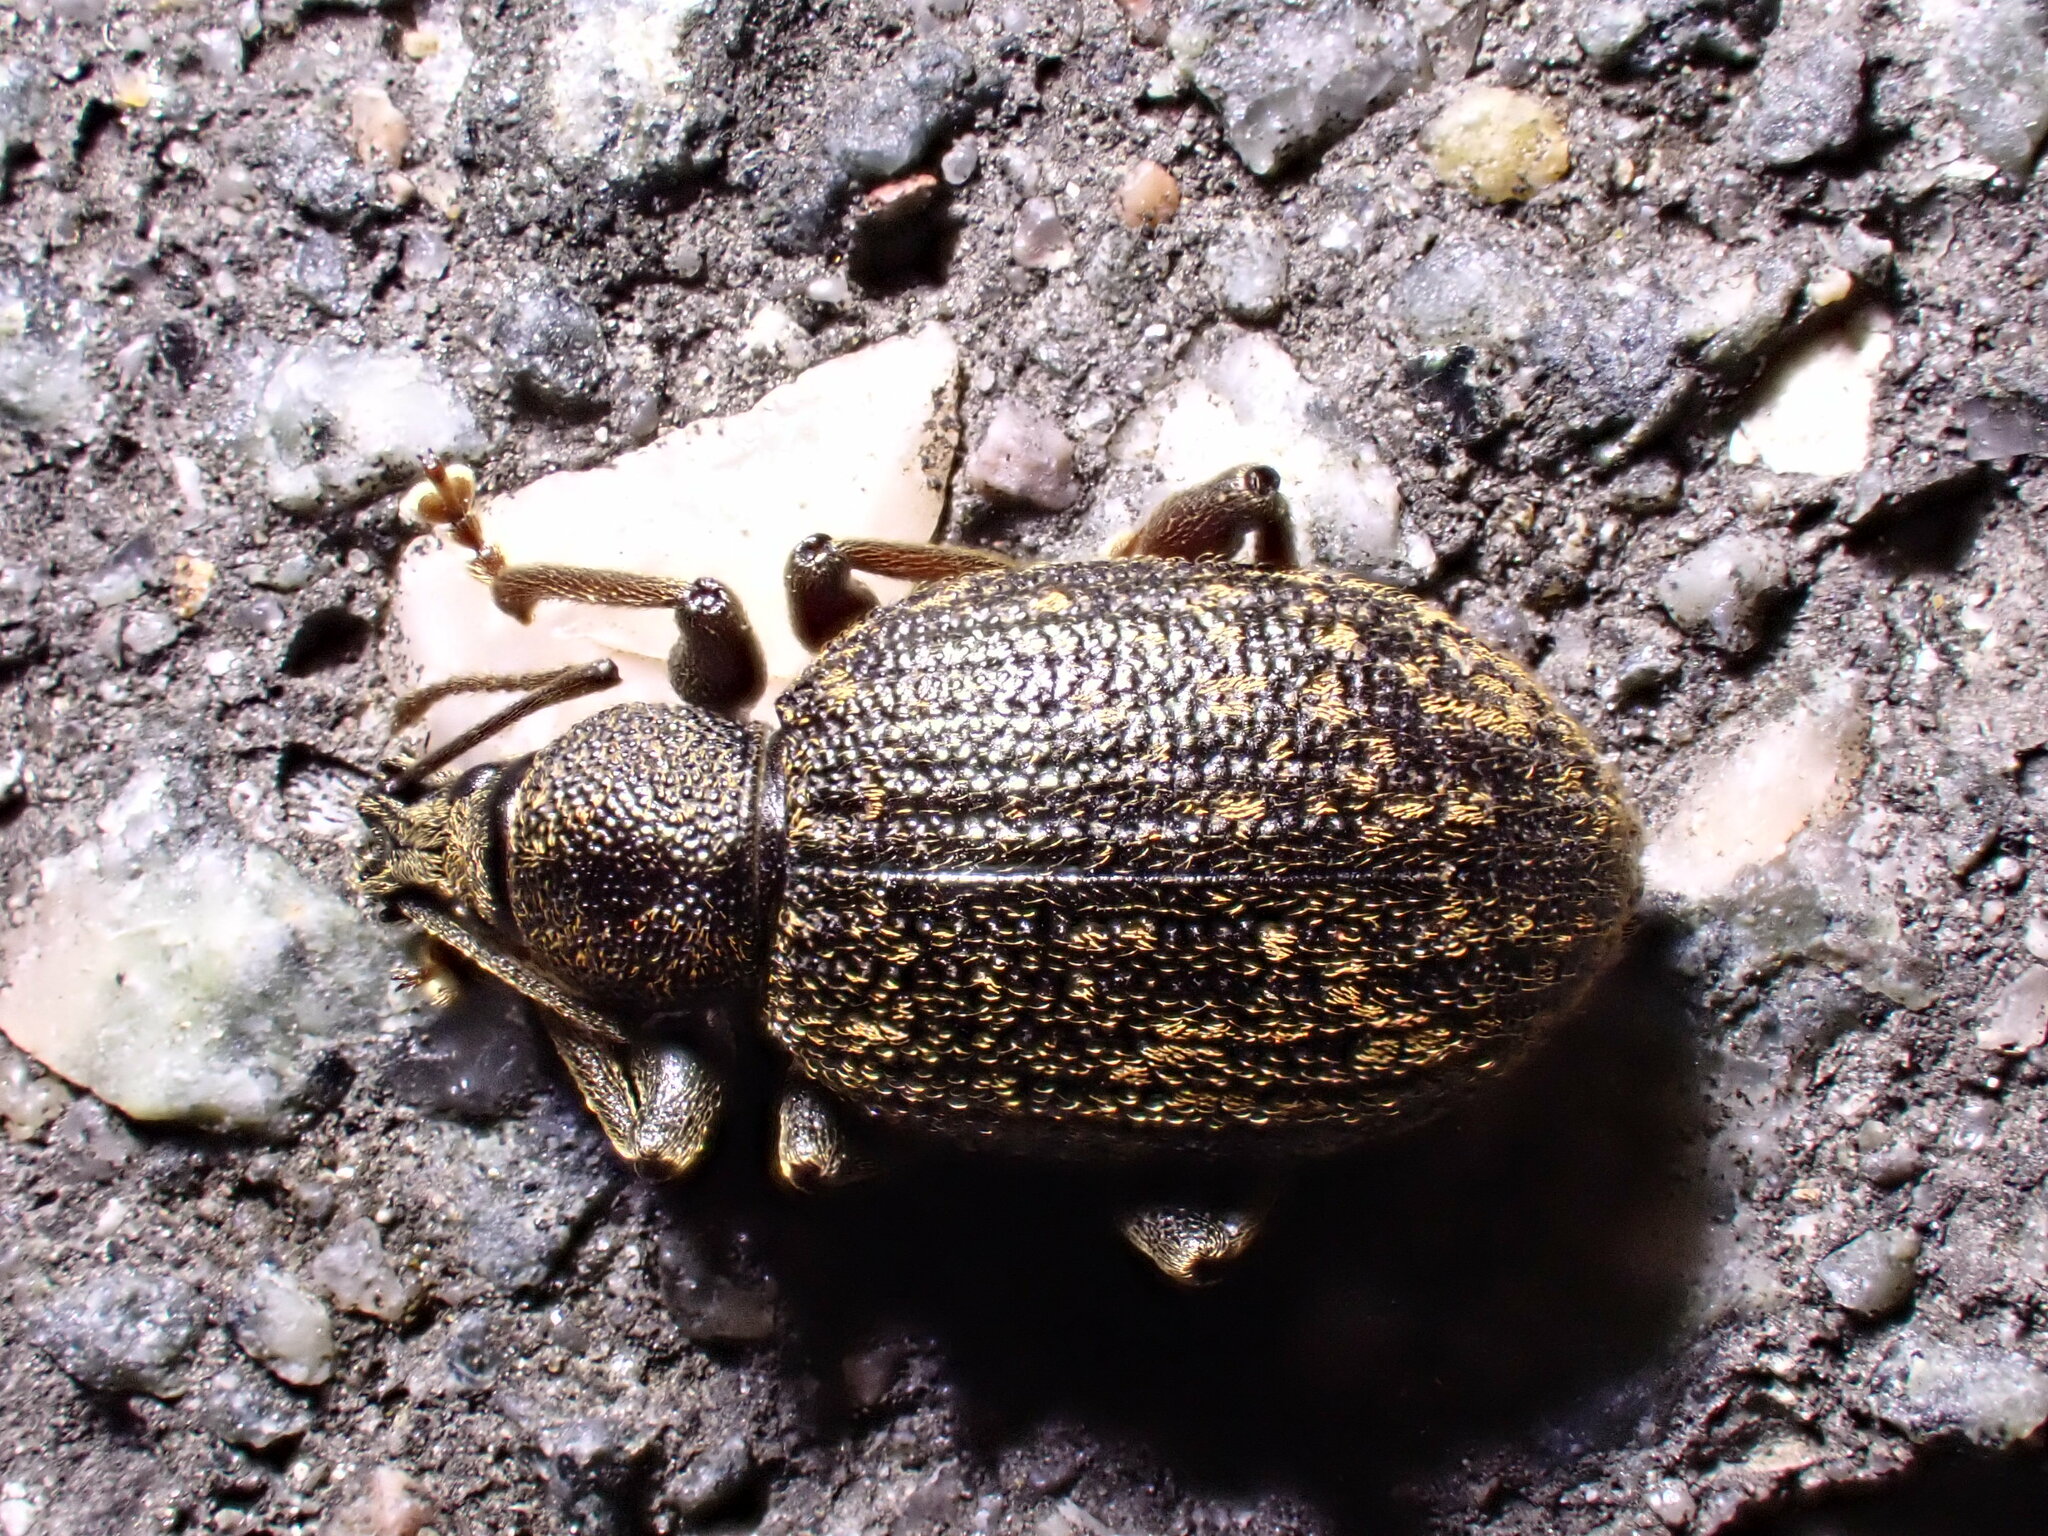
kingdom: Animalia
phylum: Arthropoda
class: Insecta
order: Coleoptera
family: Curculionidae
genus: Otiorhynchus
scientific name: Otiorhynchus aurifer
